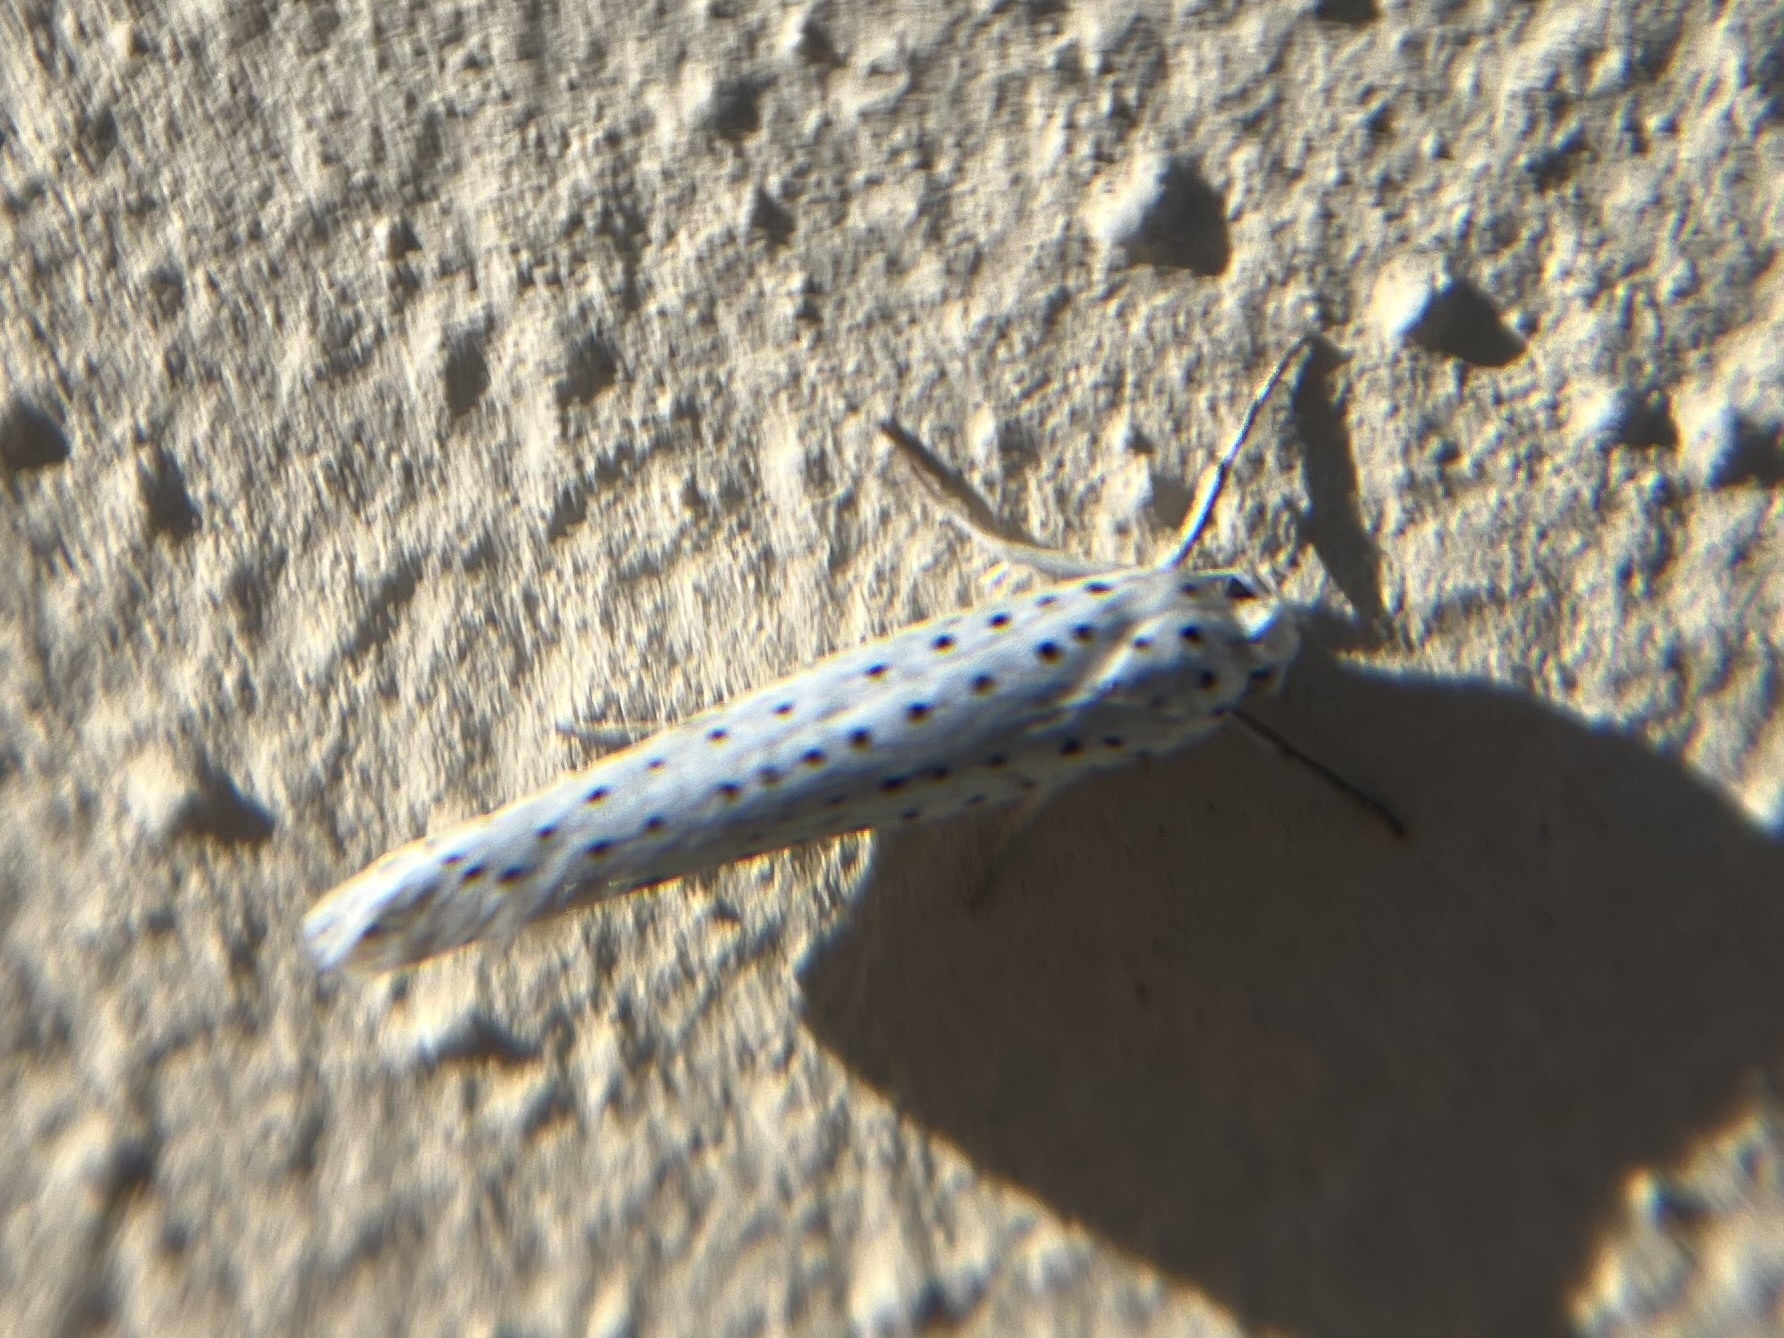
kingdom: Animalia
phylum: Arthropoda
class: Insecta
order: Lepidoptera
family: Yponomeutidae
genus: Yponomeuta
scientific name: Yponomeuta evonymella
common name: Bird-cherry ermine
